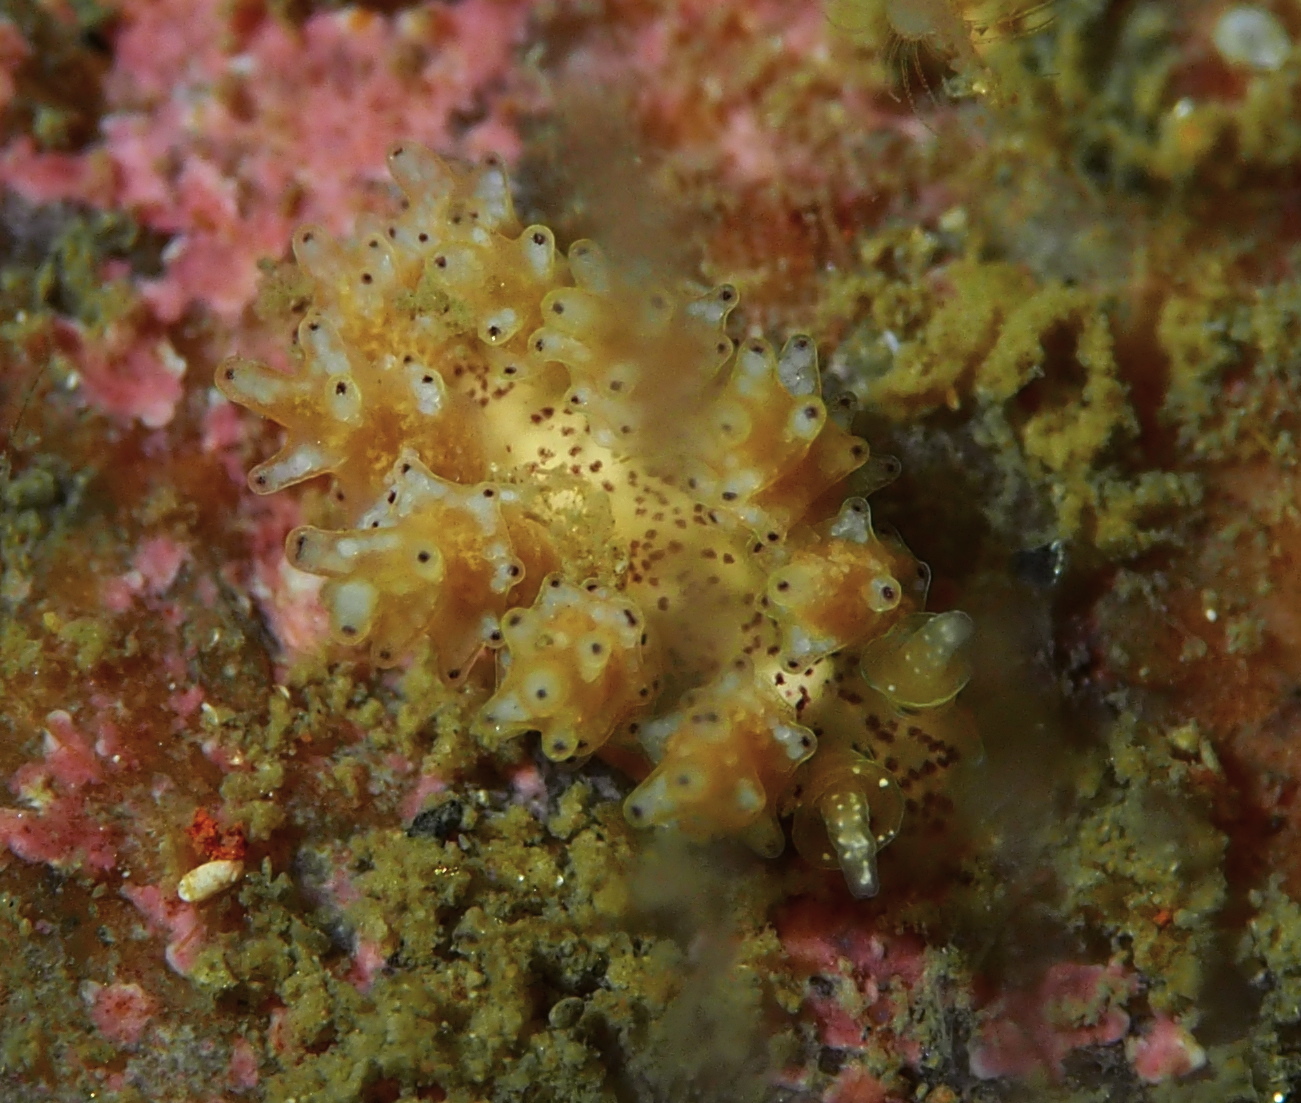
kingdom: Animalia
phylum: Mollusca
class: Gastropoda
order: Nudibranchia
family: Dotidae
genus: Doto
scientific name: Doto dunnei
